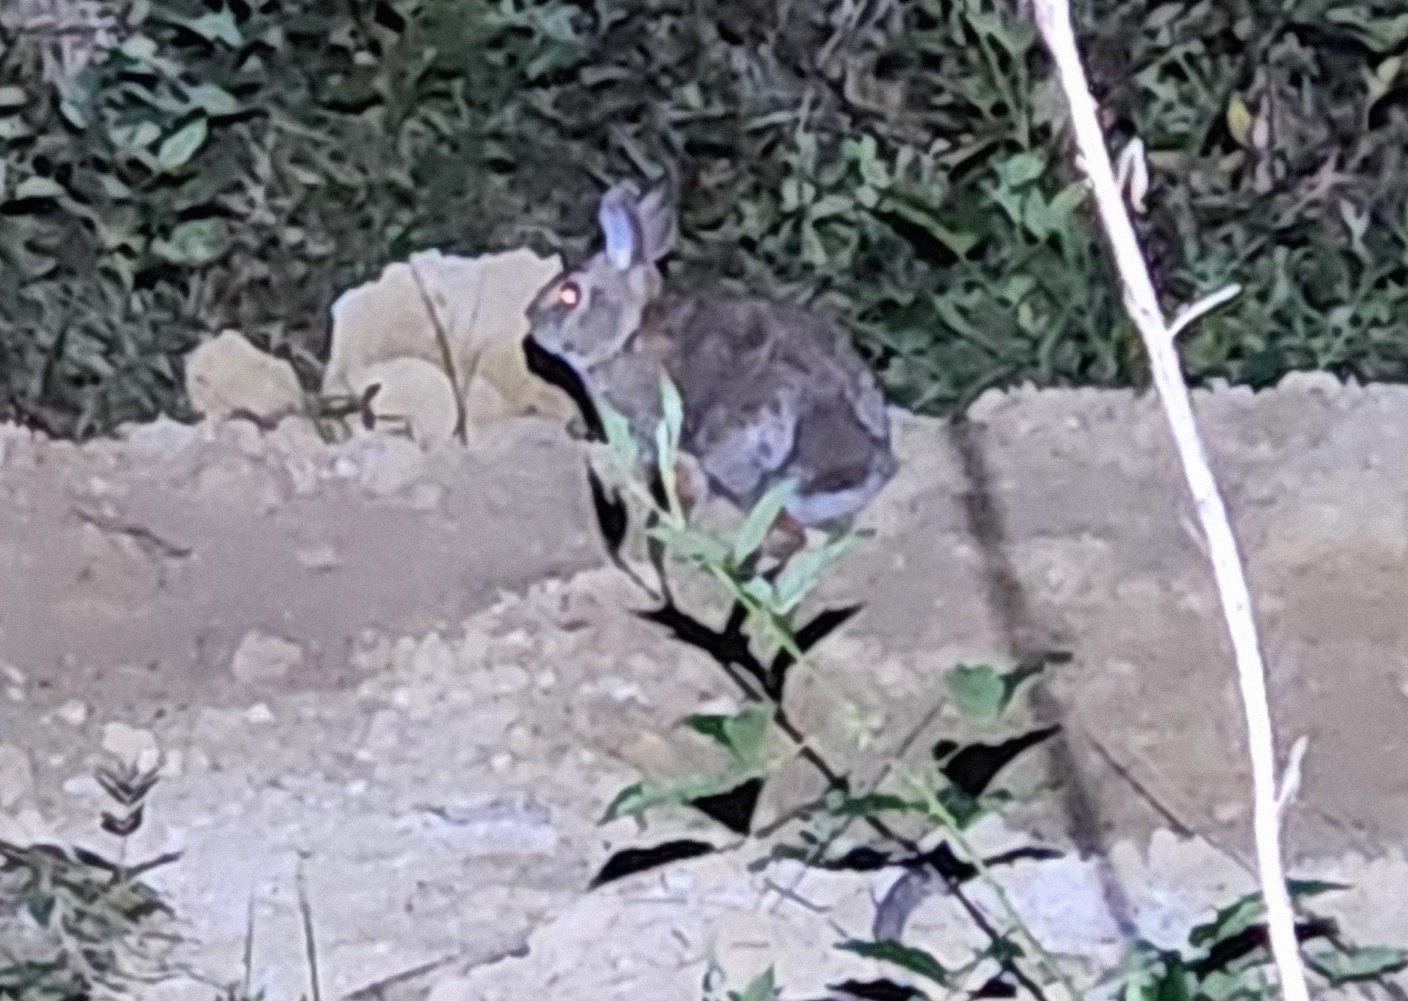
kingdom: Animalia
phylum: Chordata
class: Mammalia
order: Lagomorpha
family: Leporidae
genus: Sylvilagus
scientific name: Sylvilagus floridanus
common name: Eastern cottontail
